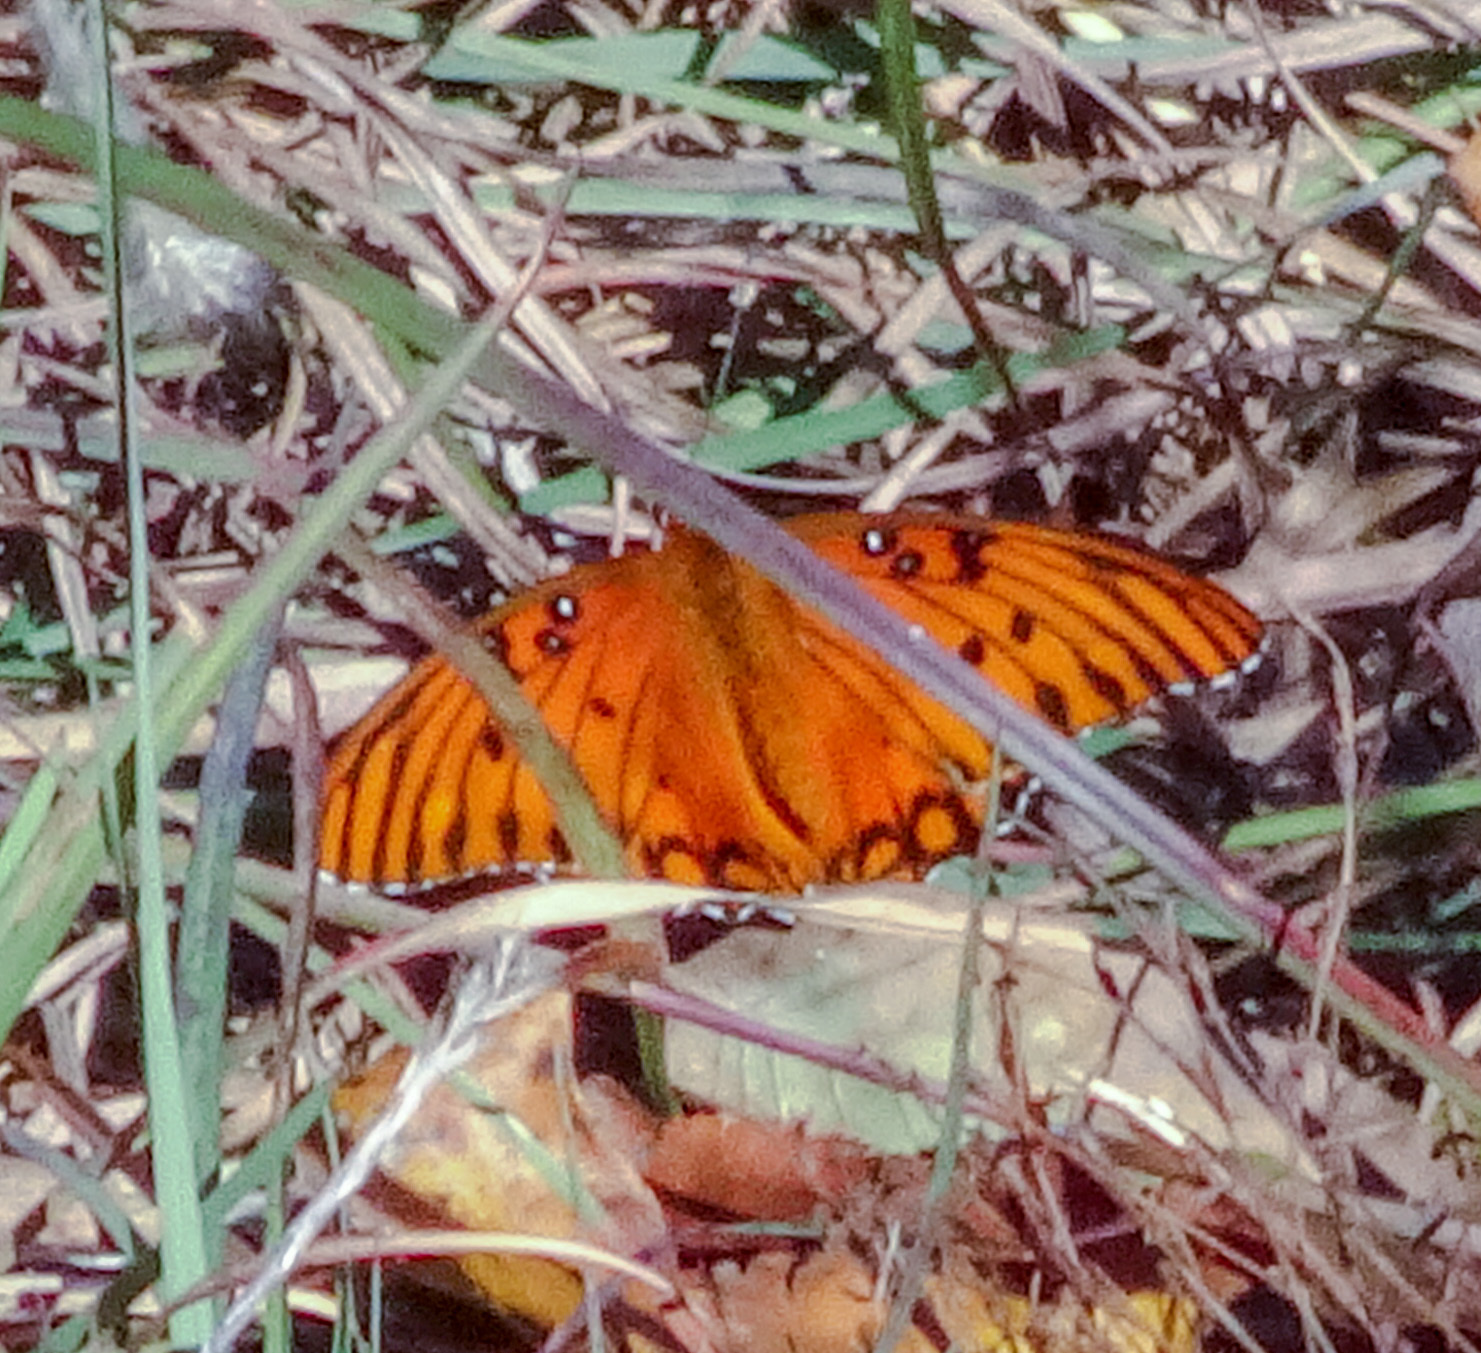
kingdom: Animalia
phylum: Arthropoda
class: Insecta
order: Lepidoptera
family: Nymphalidae
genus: Dione
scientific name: Dione vanillae
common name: Gulf fritillary
